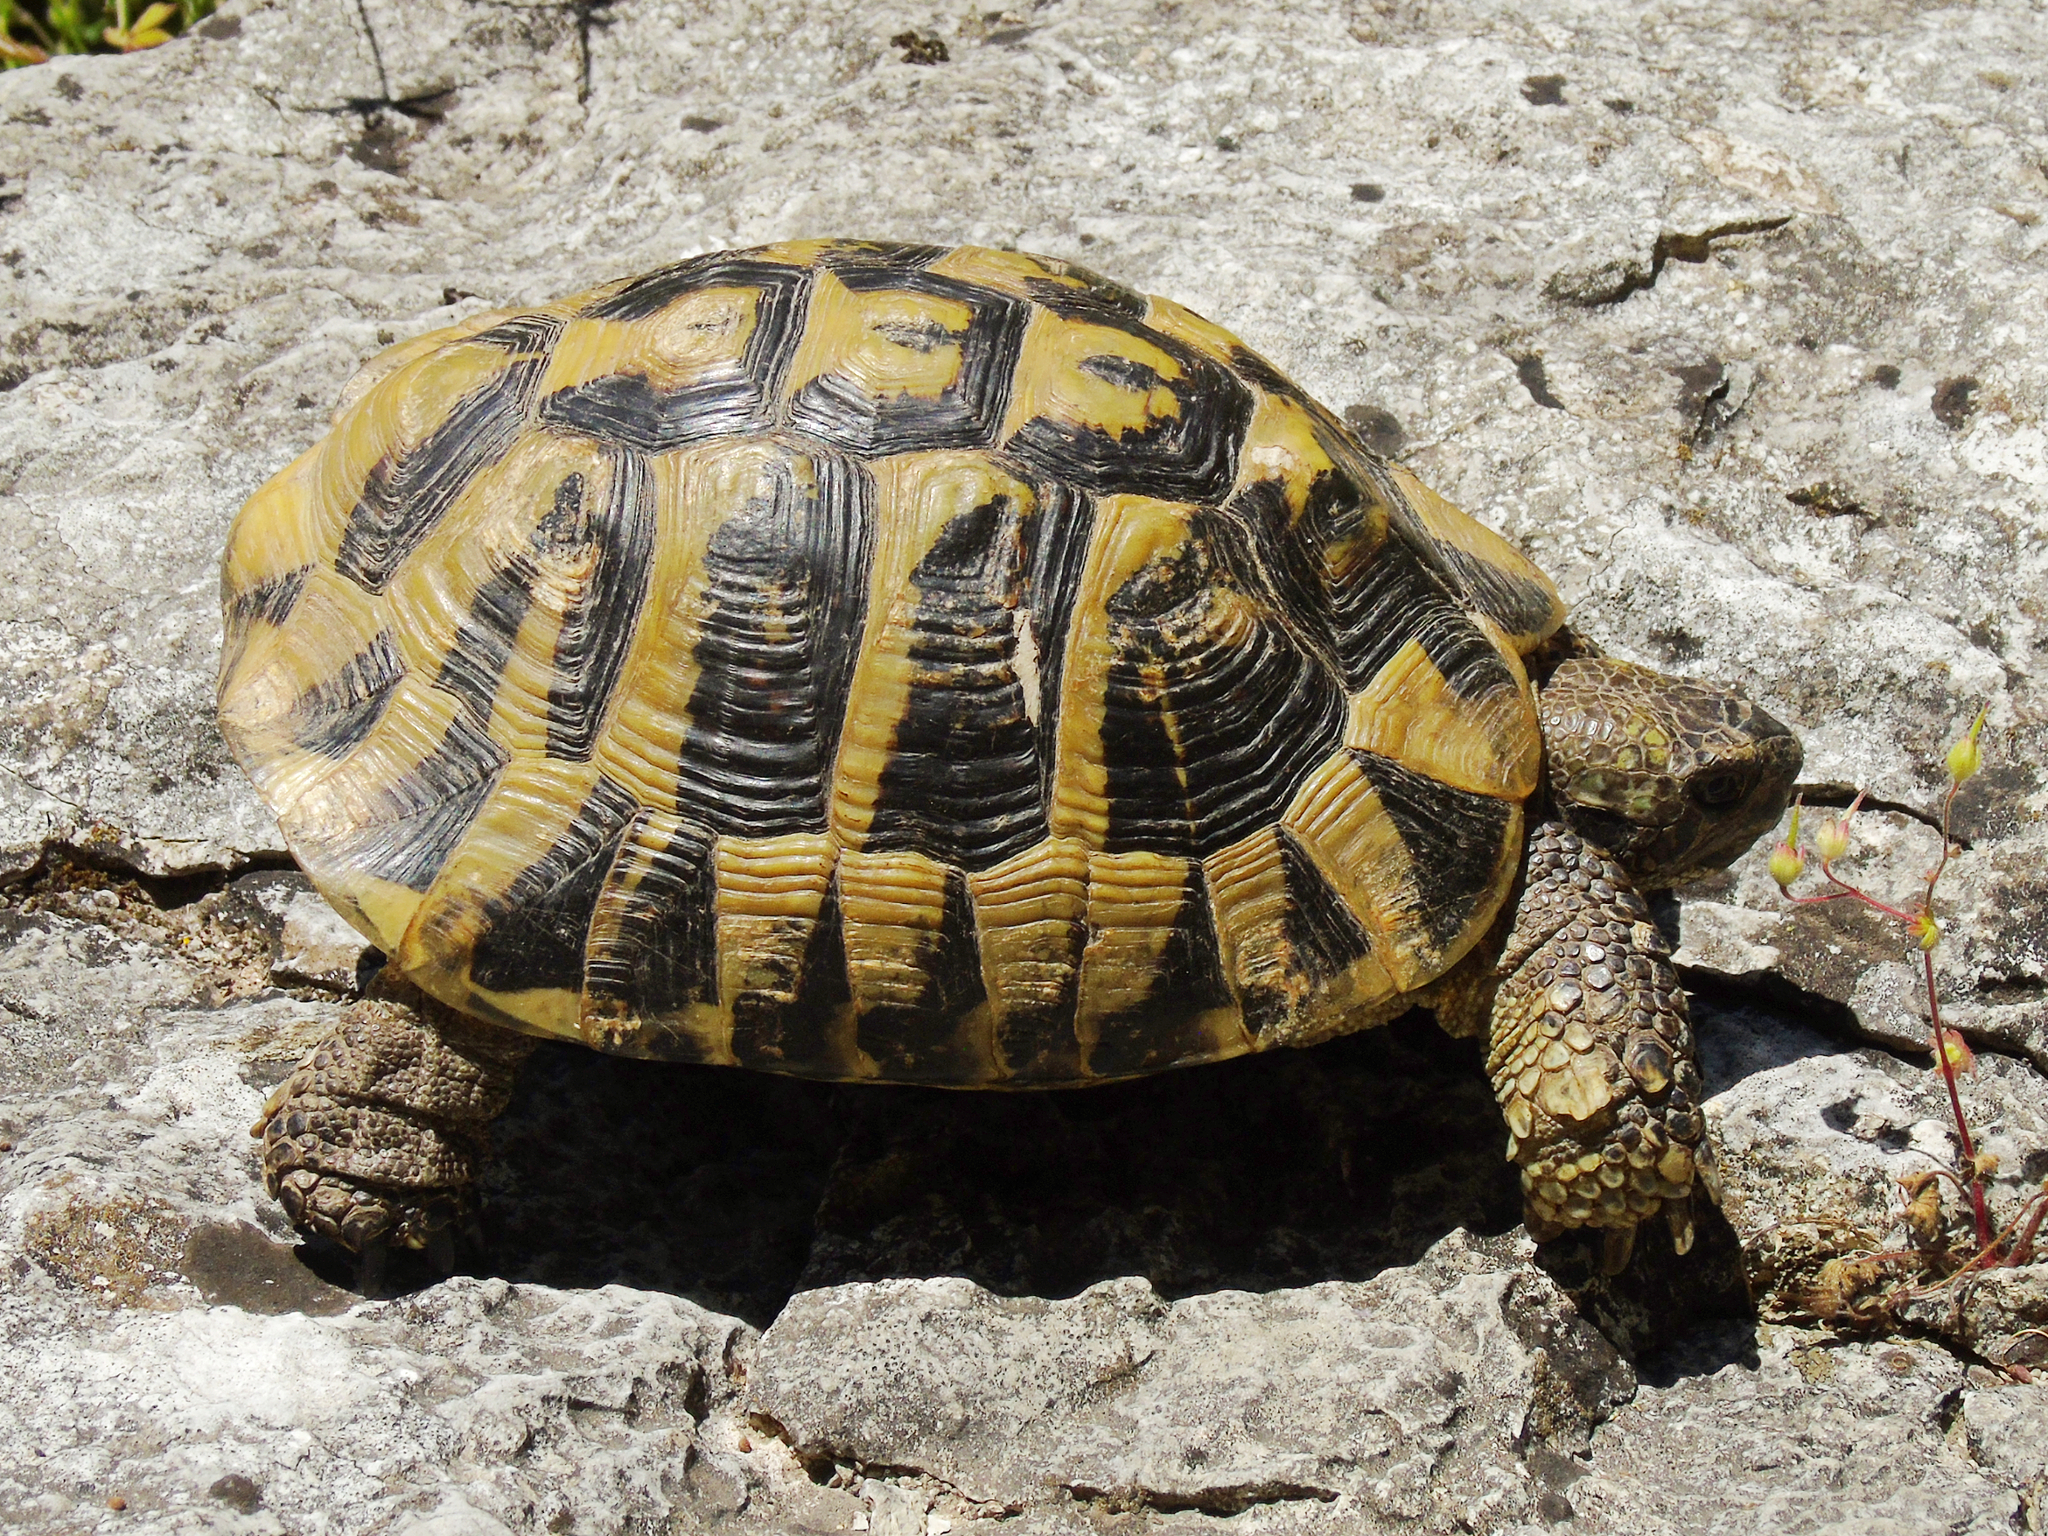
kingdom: Animalia
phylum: Chordata
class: Testudines
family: Testudinidae
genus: Testudo
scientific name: Testudo hermanni
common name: Hermann's tortoise
